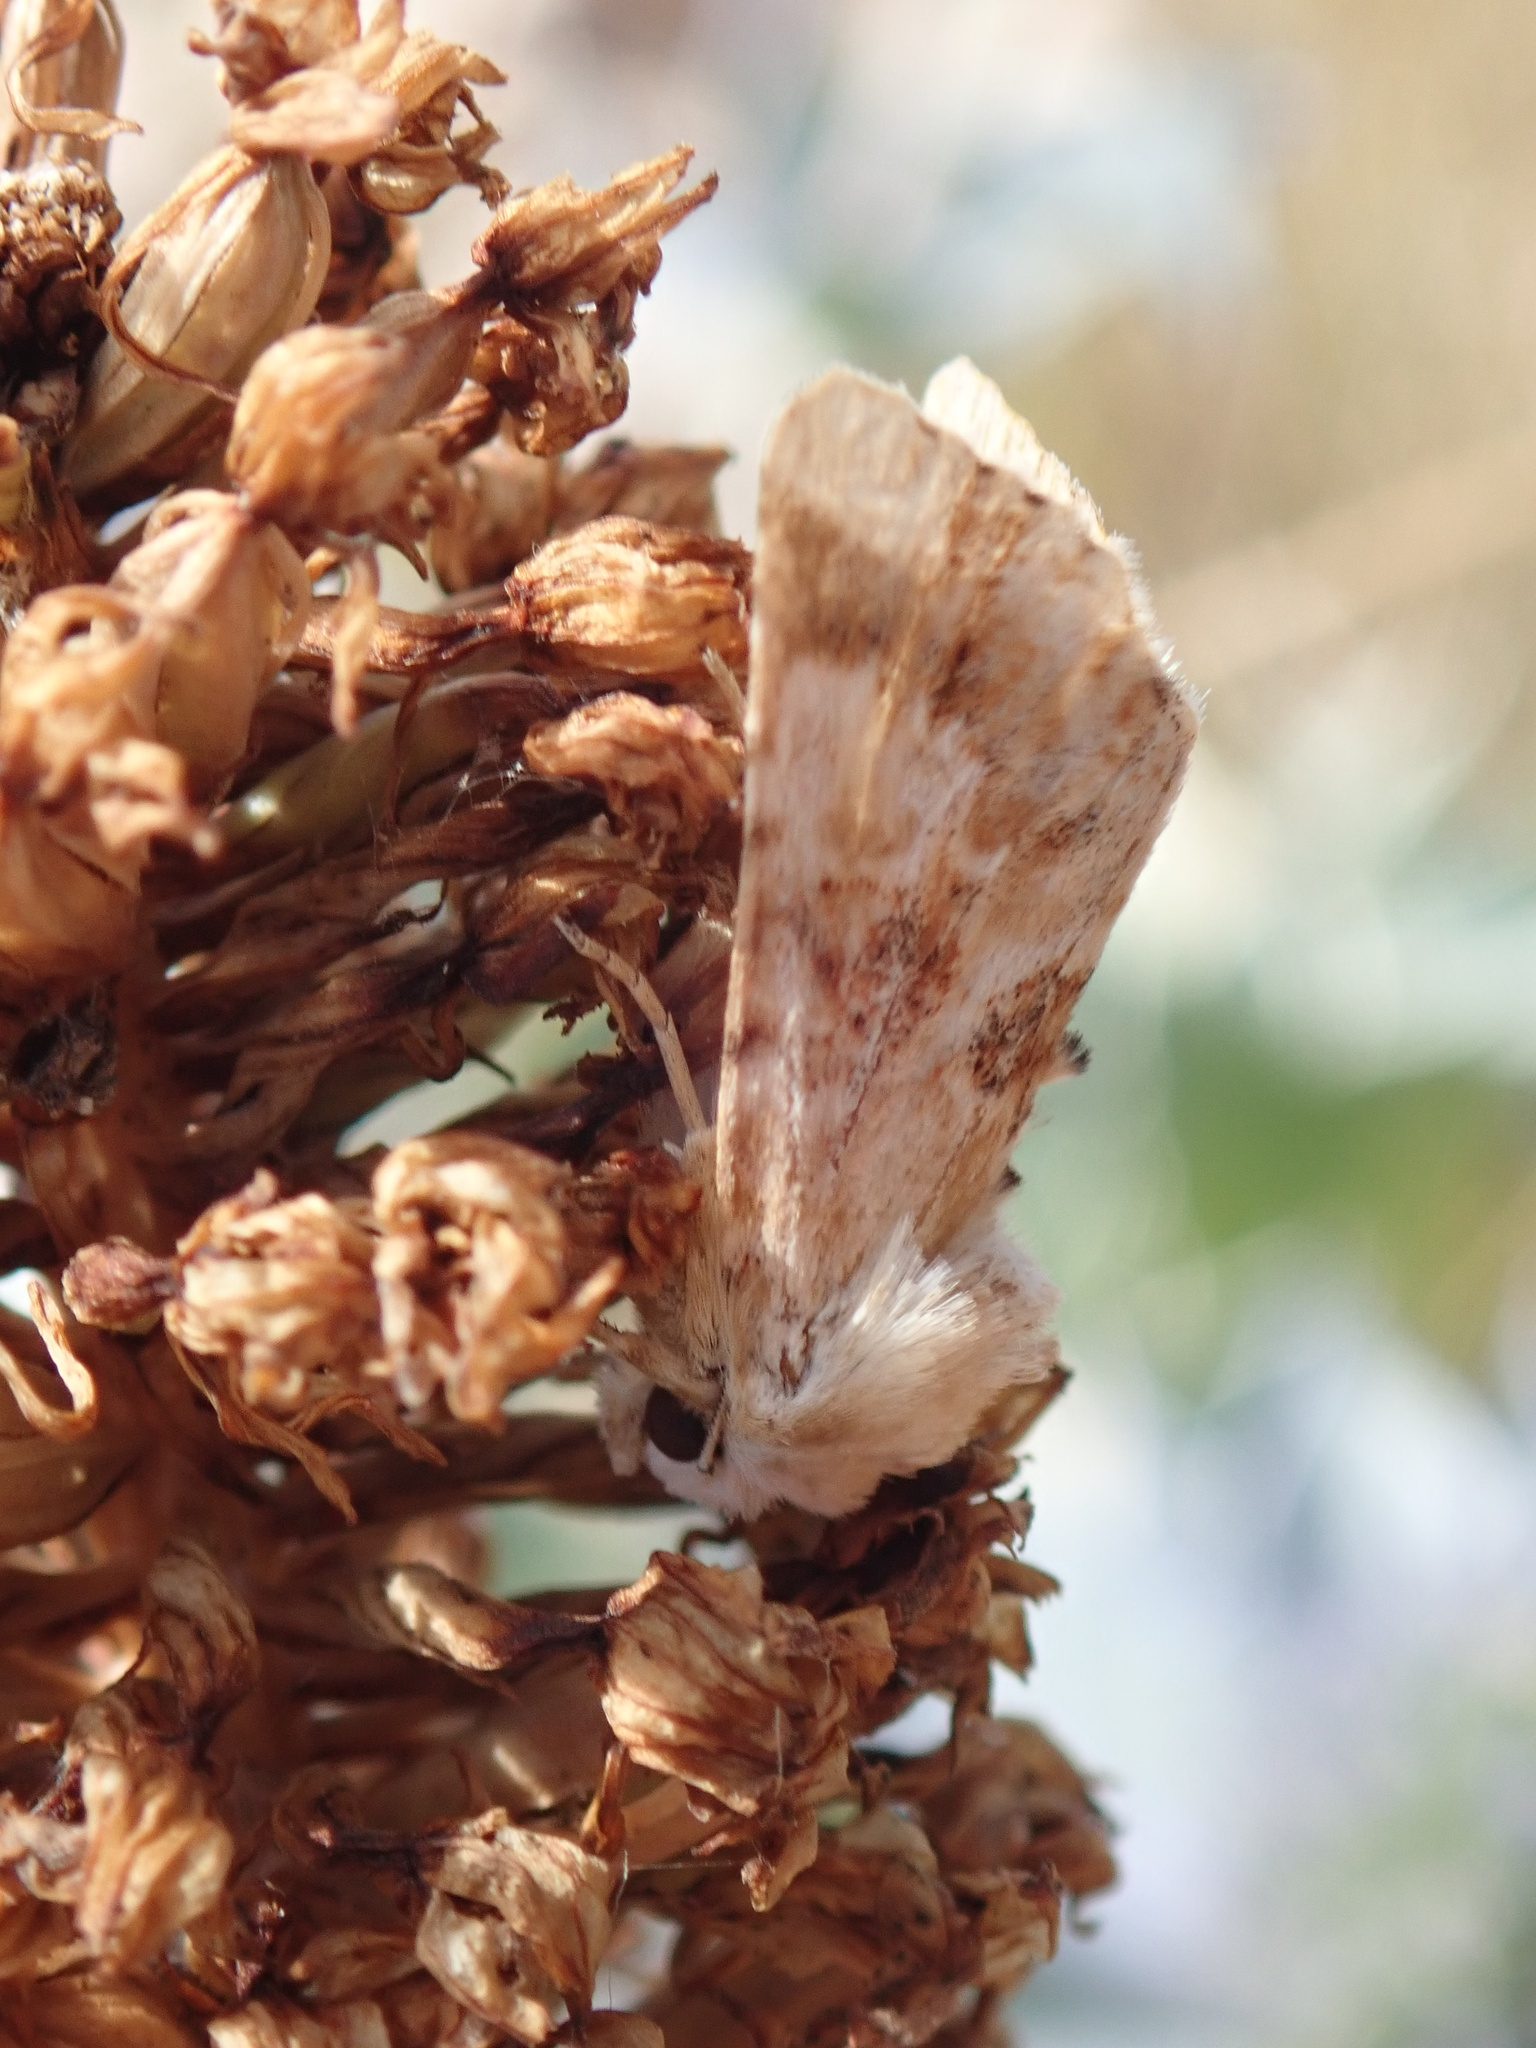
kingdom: Animalia
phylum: Arthropoda
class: Insecta
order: Lepidoptera
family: Noctuidae
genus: Eremobia
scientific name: Eremobia ochroleuca
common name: Dusky sallow
